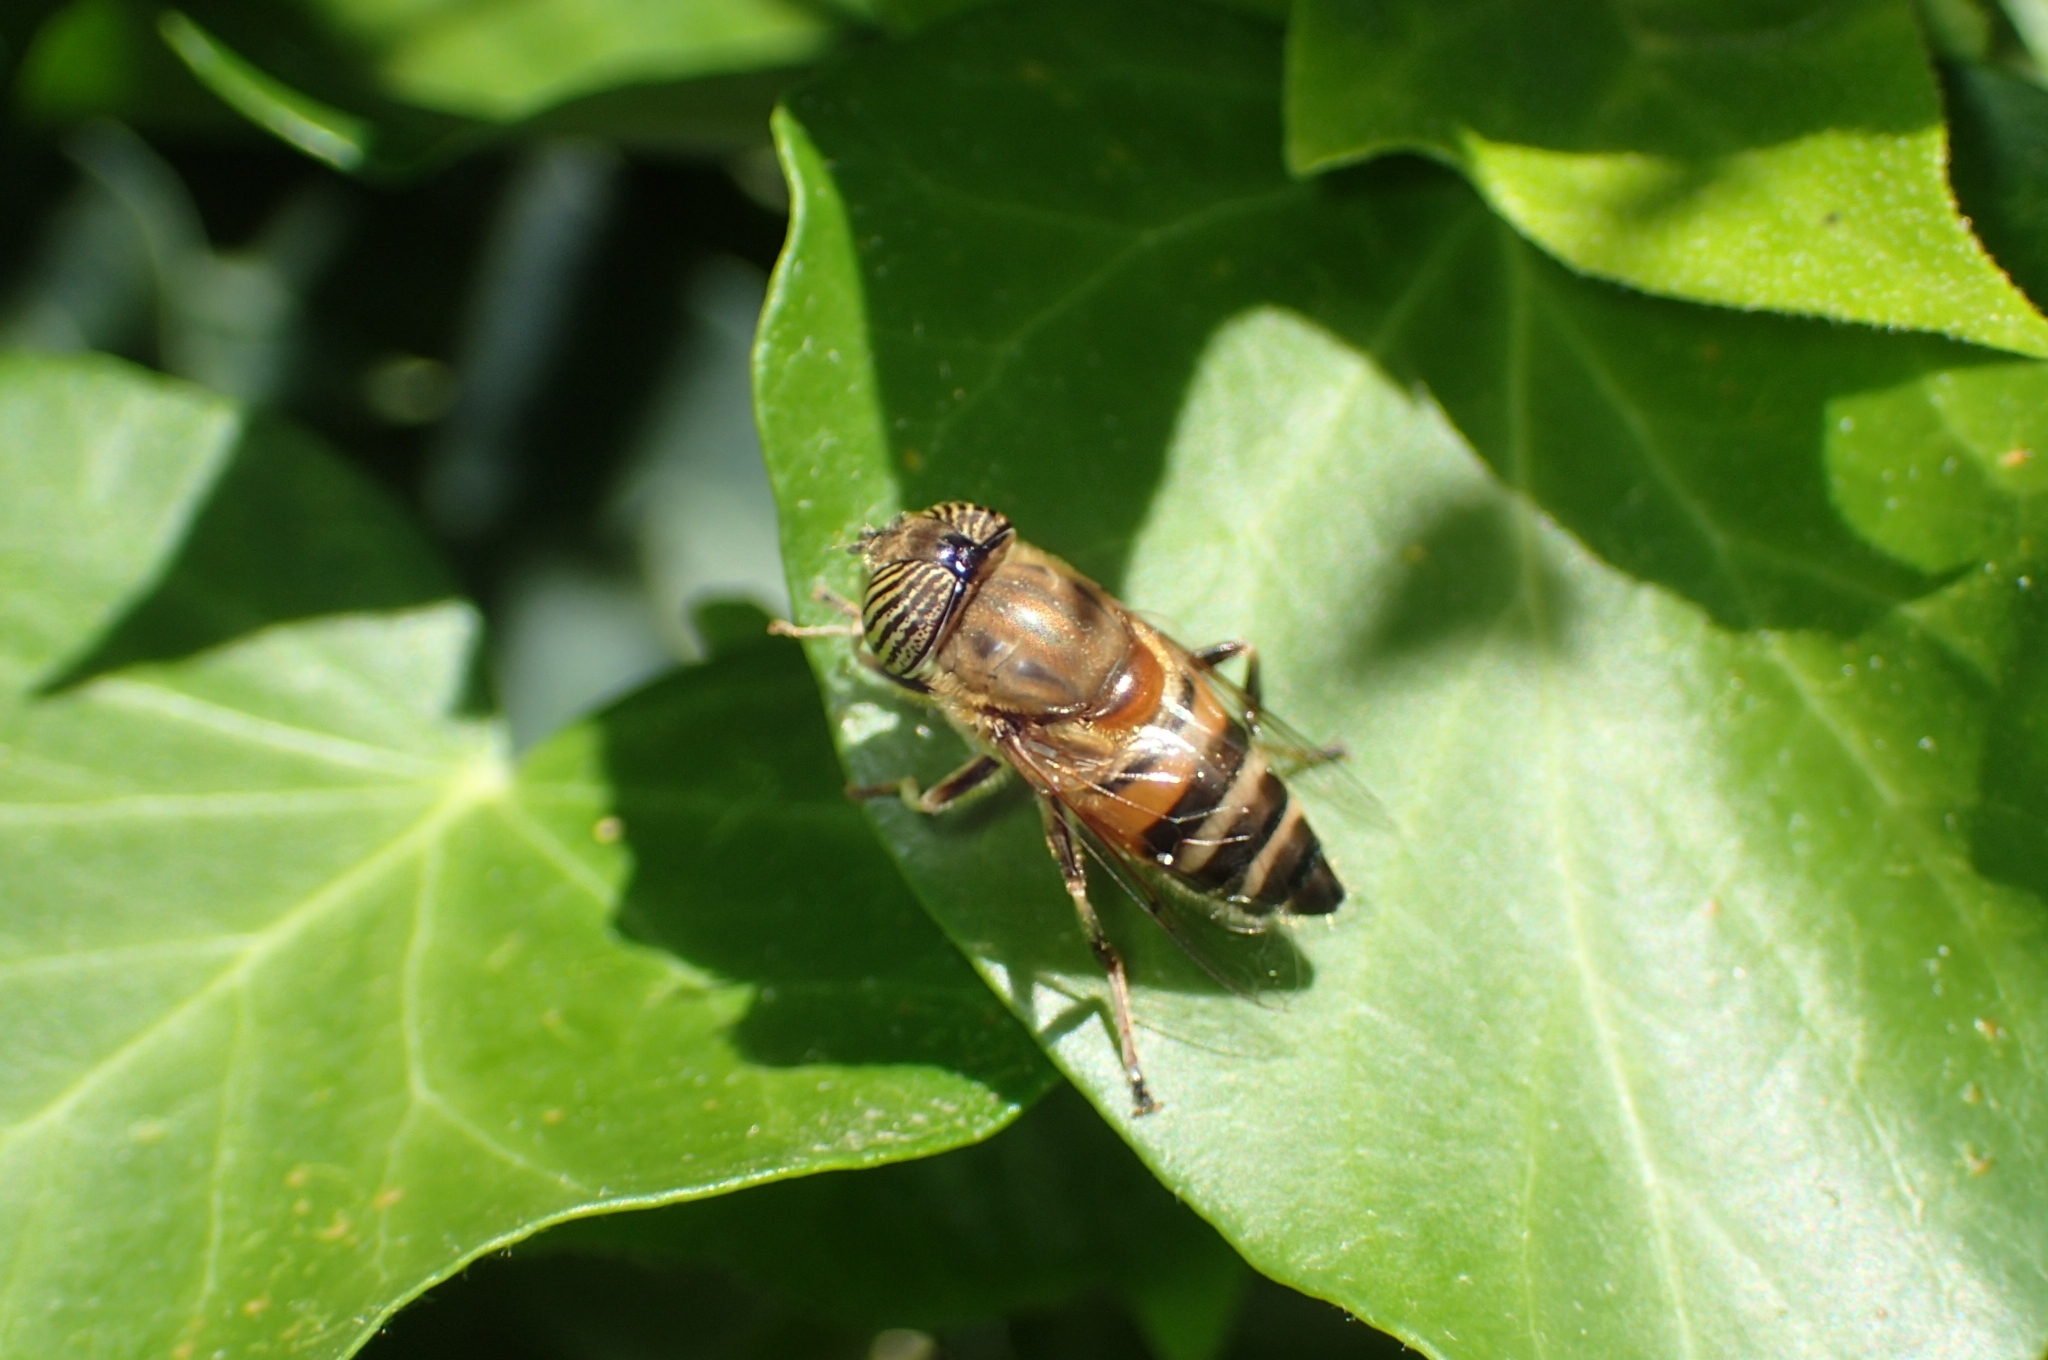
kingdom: Animalia
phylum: Arthropoda
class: Insecta
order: Diptera
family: Syrphidae
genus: Eristalinus
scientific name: Eristalinus taeniops
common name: Syrphid fly
